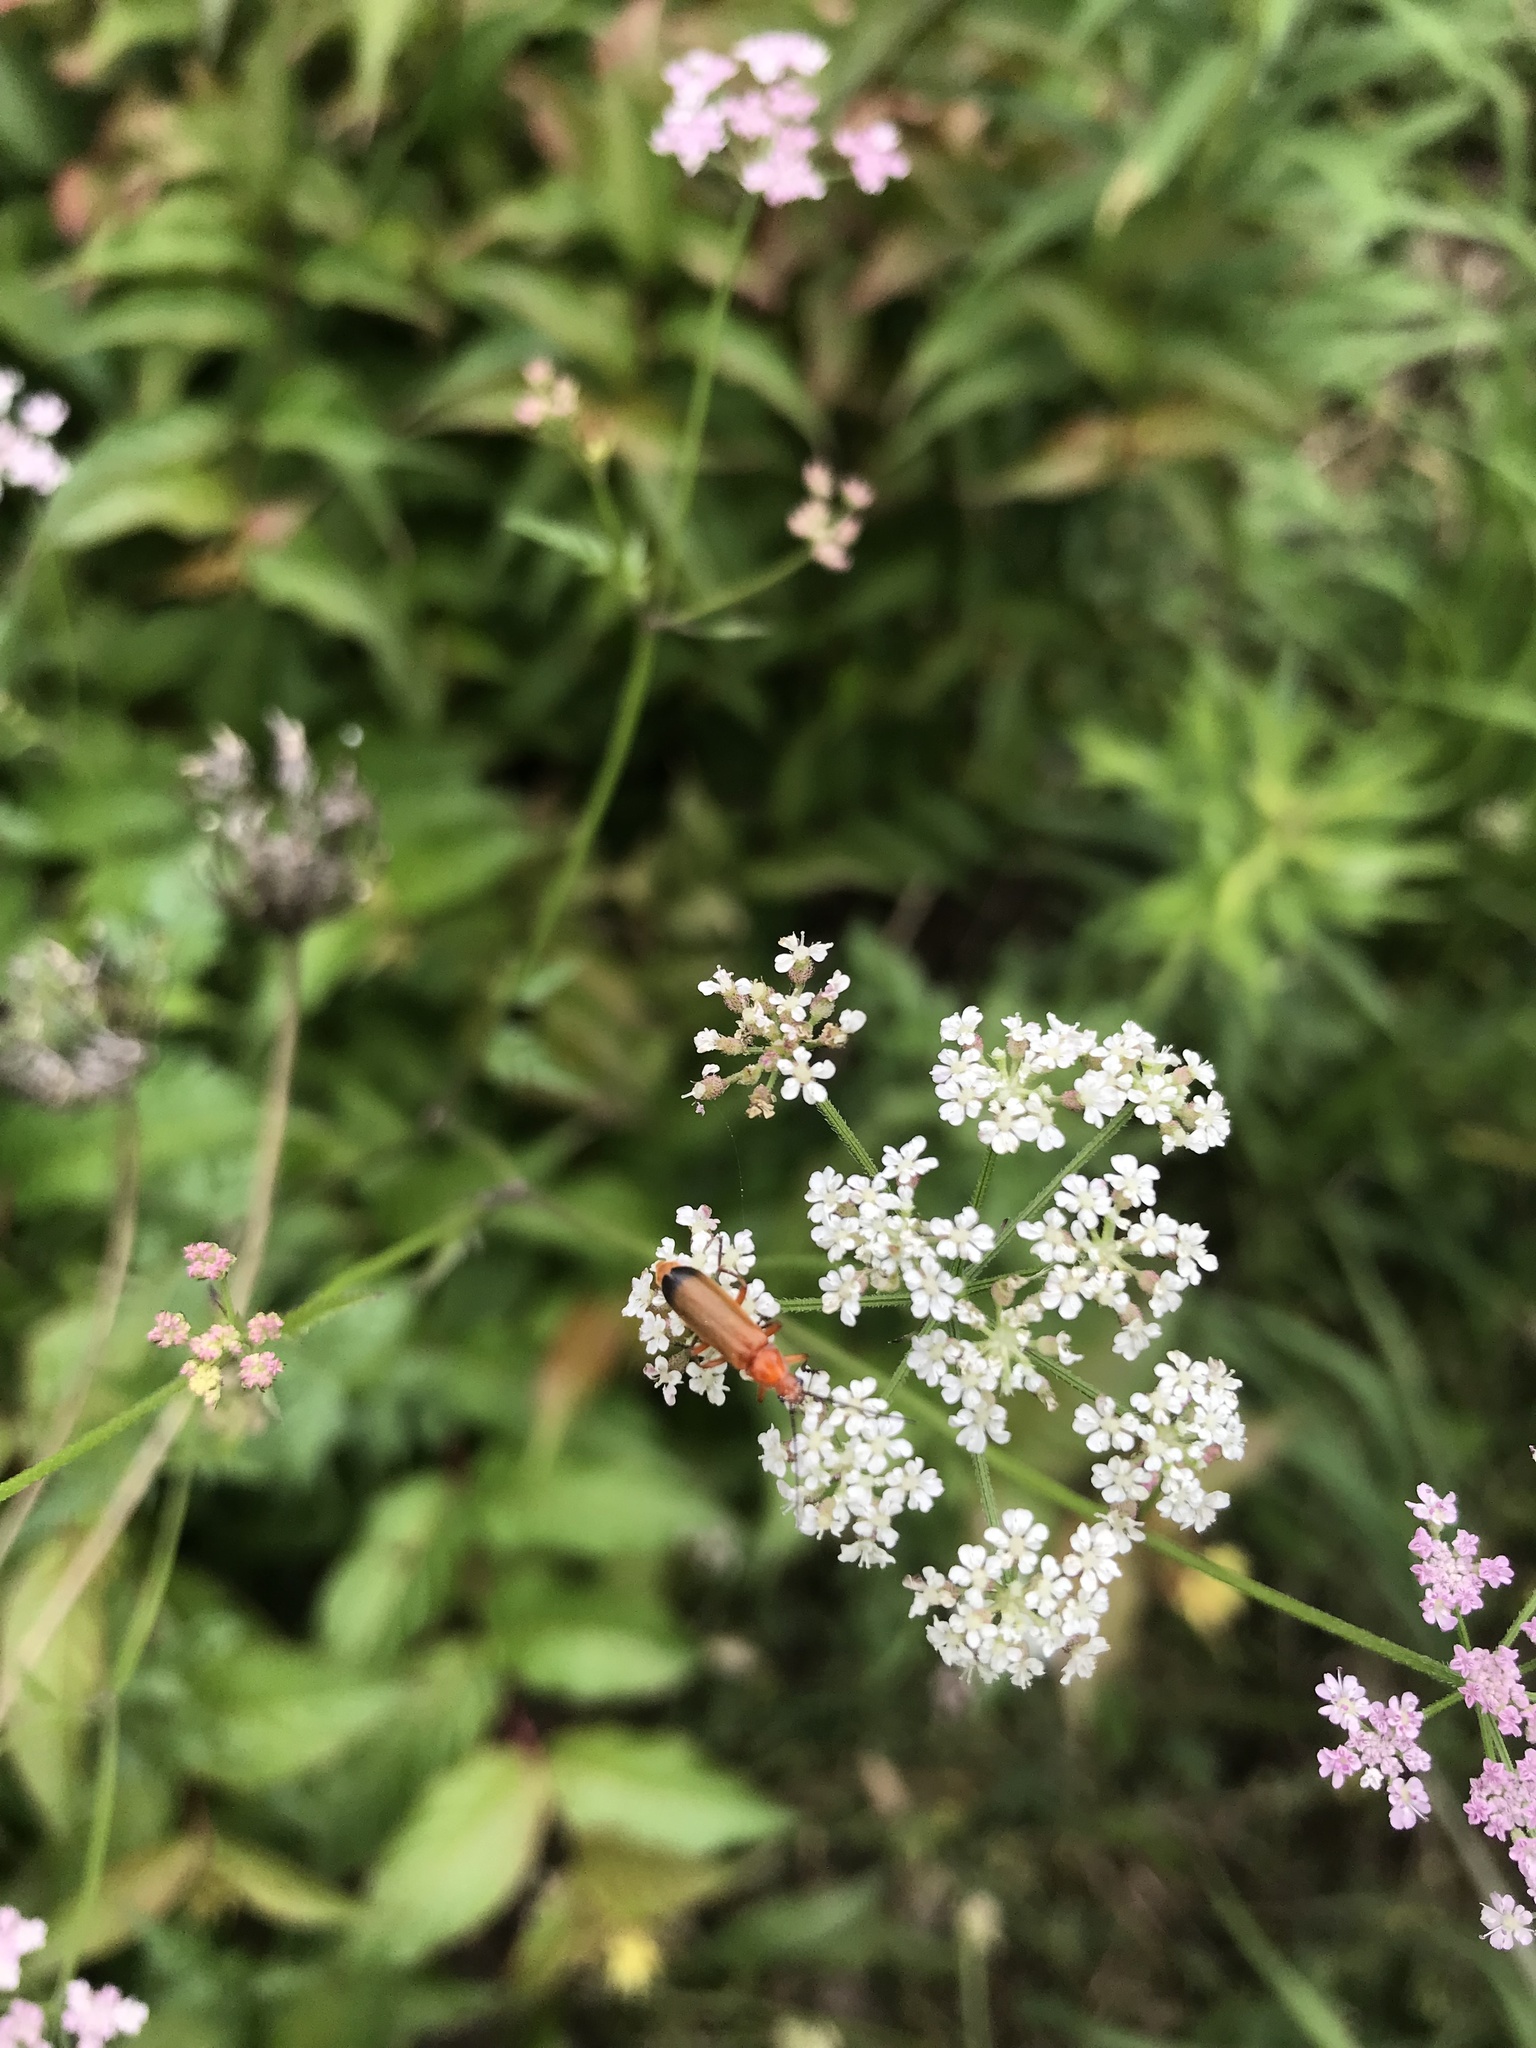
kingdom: Animalia
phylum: Arthropoda
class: Insecta
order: Coleoptera
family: Cantharidae
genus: Rhagonycha
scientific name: Rhagonycha fulva
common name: Common red soldier beetle
